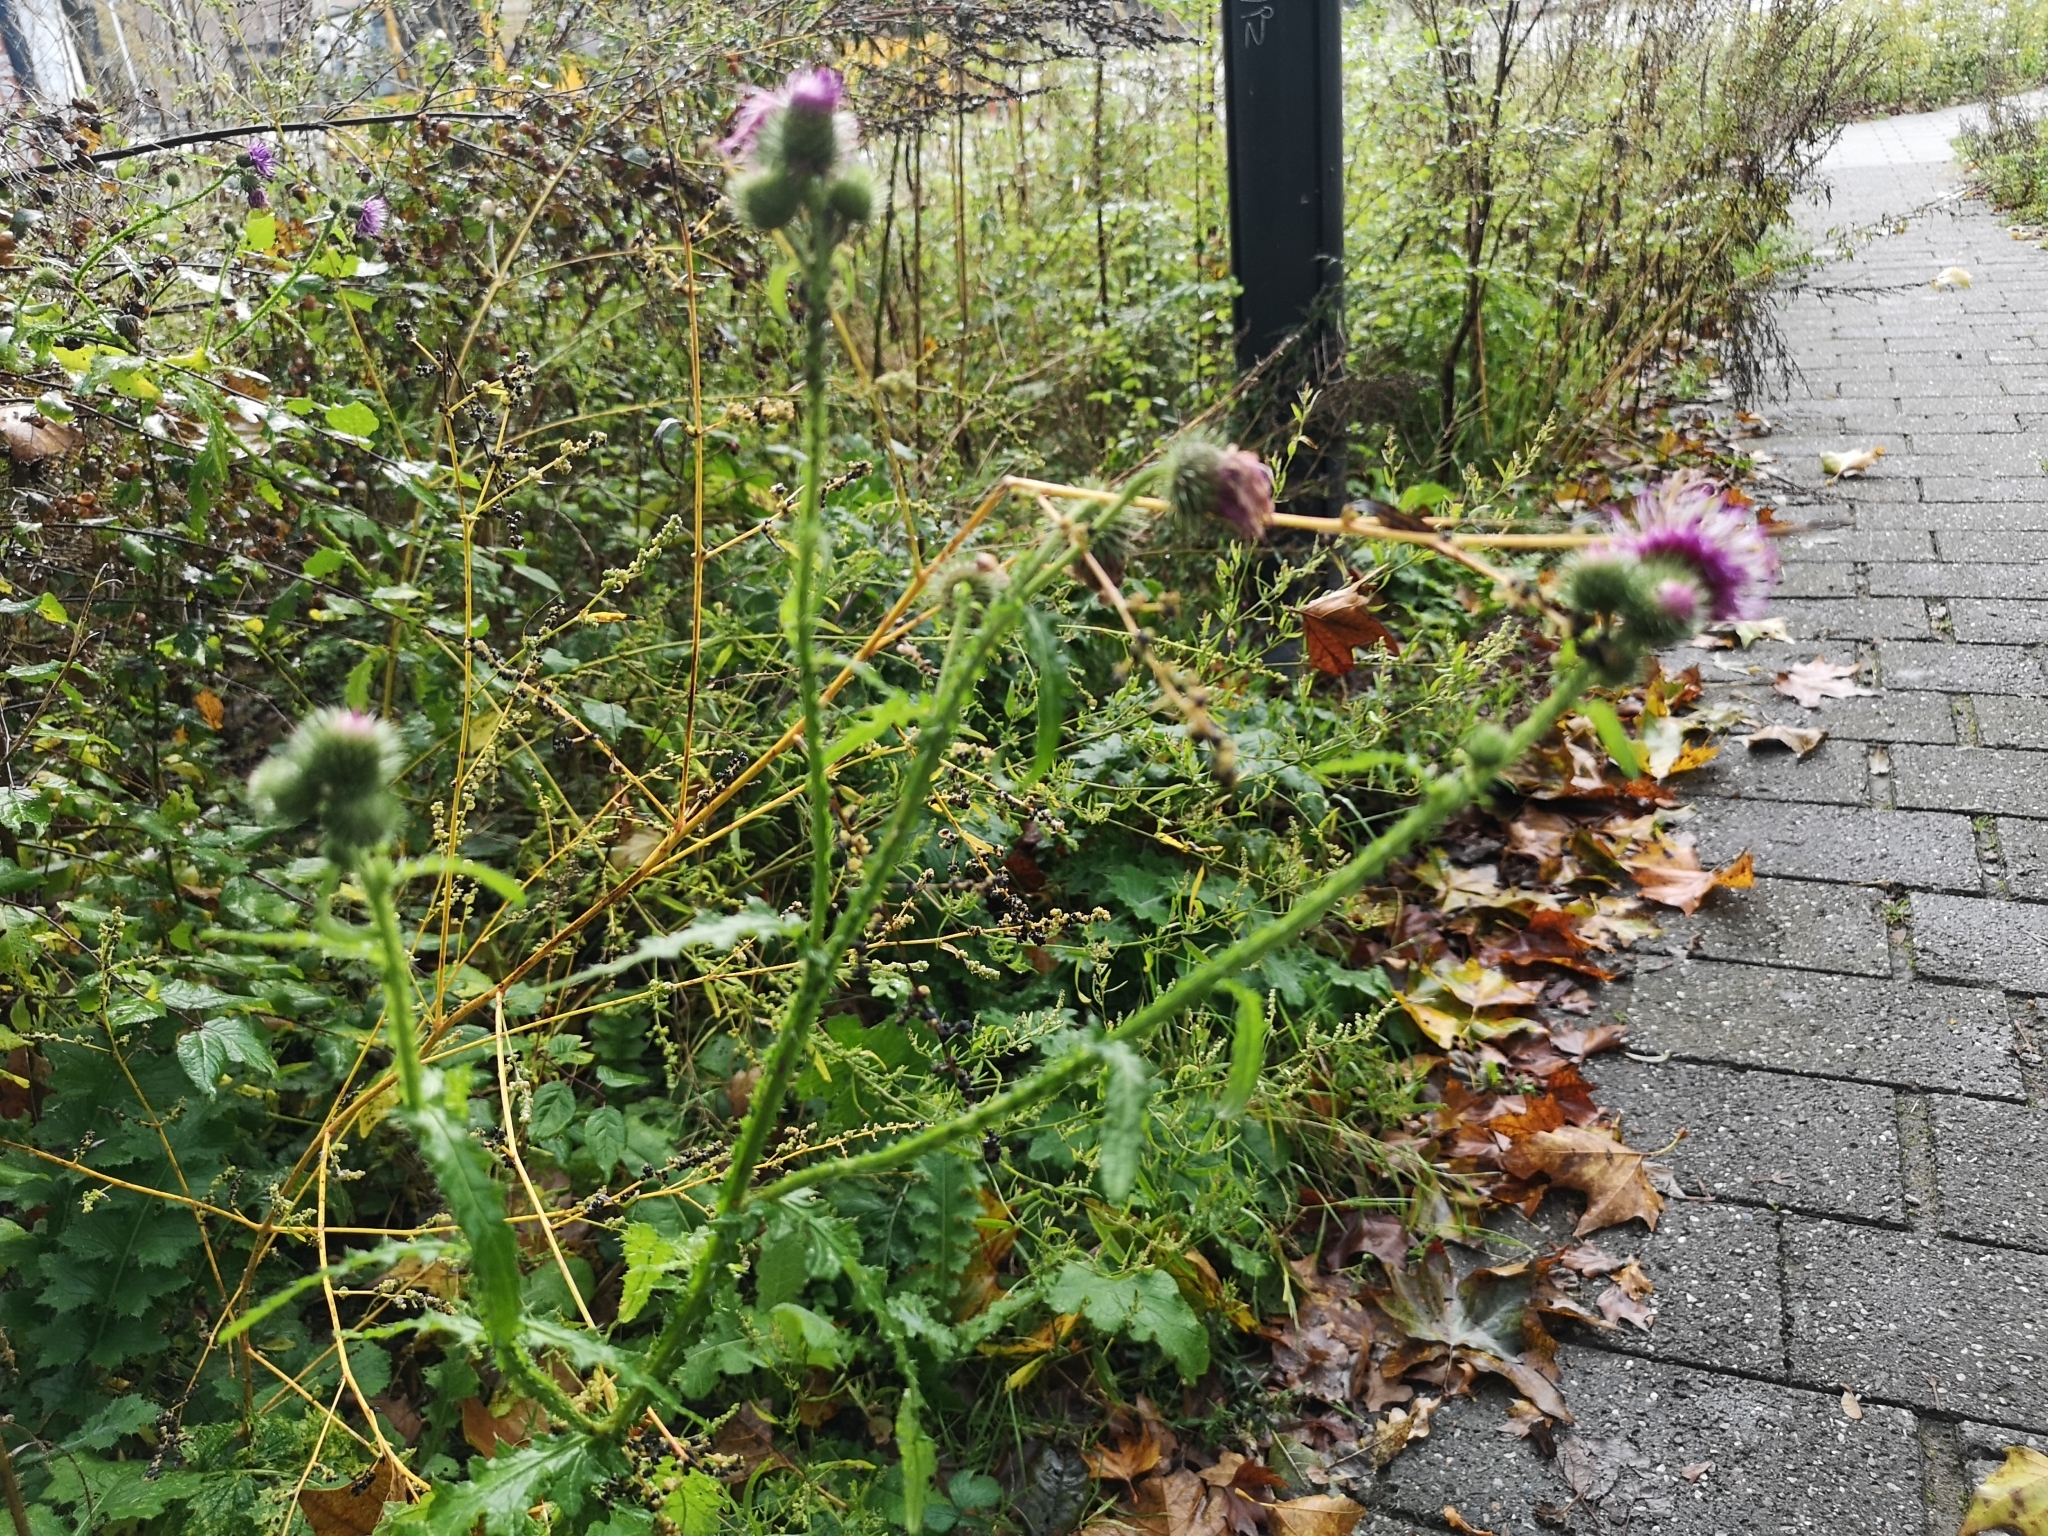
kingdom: Plantae
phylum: Tracheophyta
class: Magnoliopsida
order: Asterales
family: Asteraceae
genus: Carduus
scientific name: Carduus crispus
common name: Welted thistle
